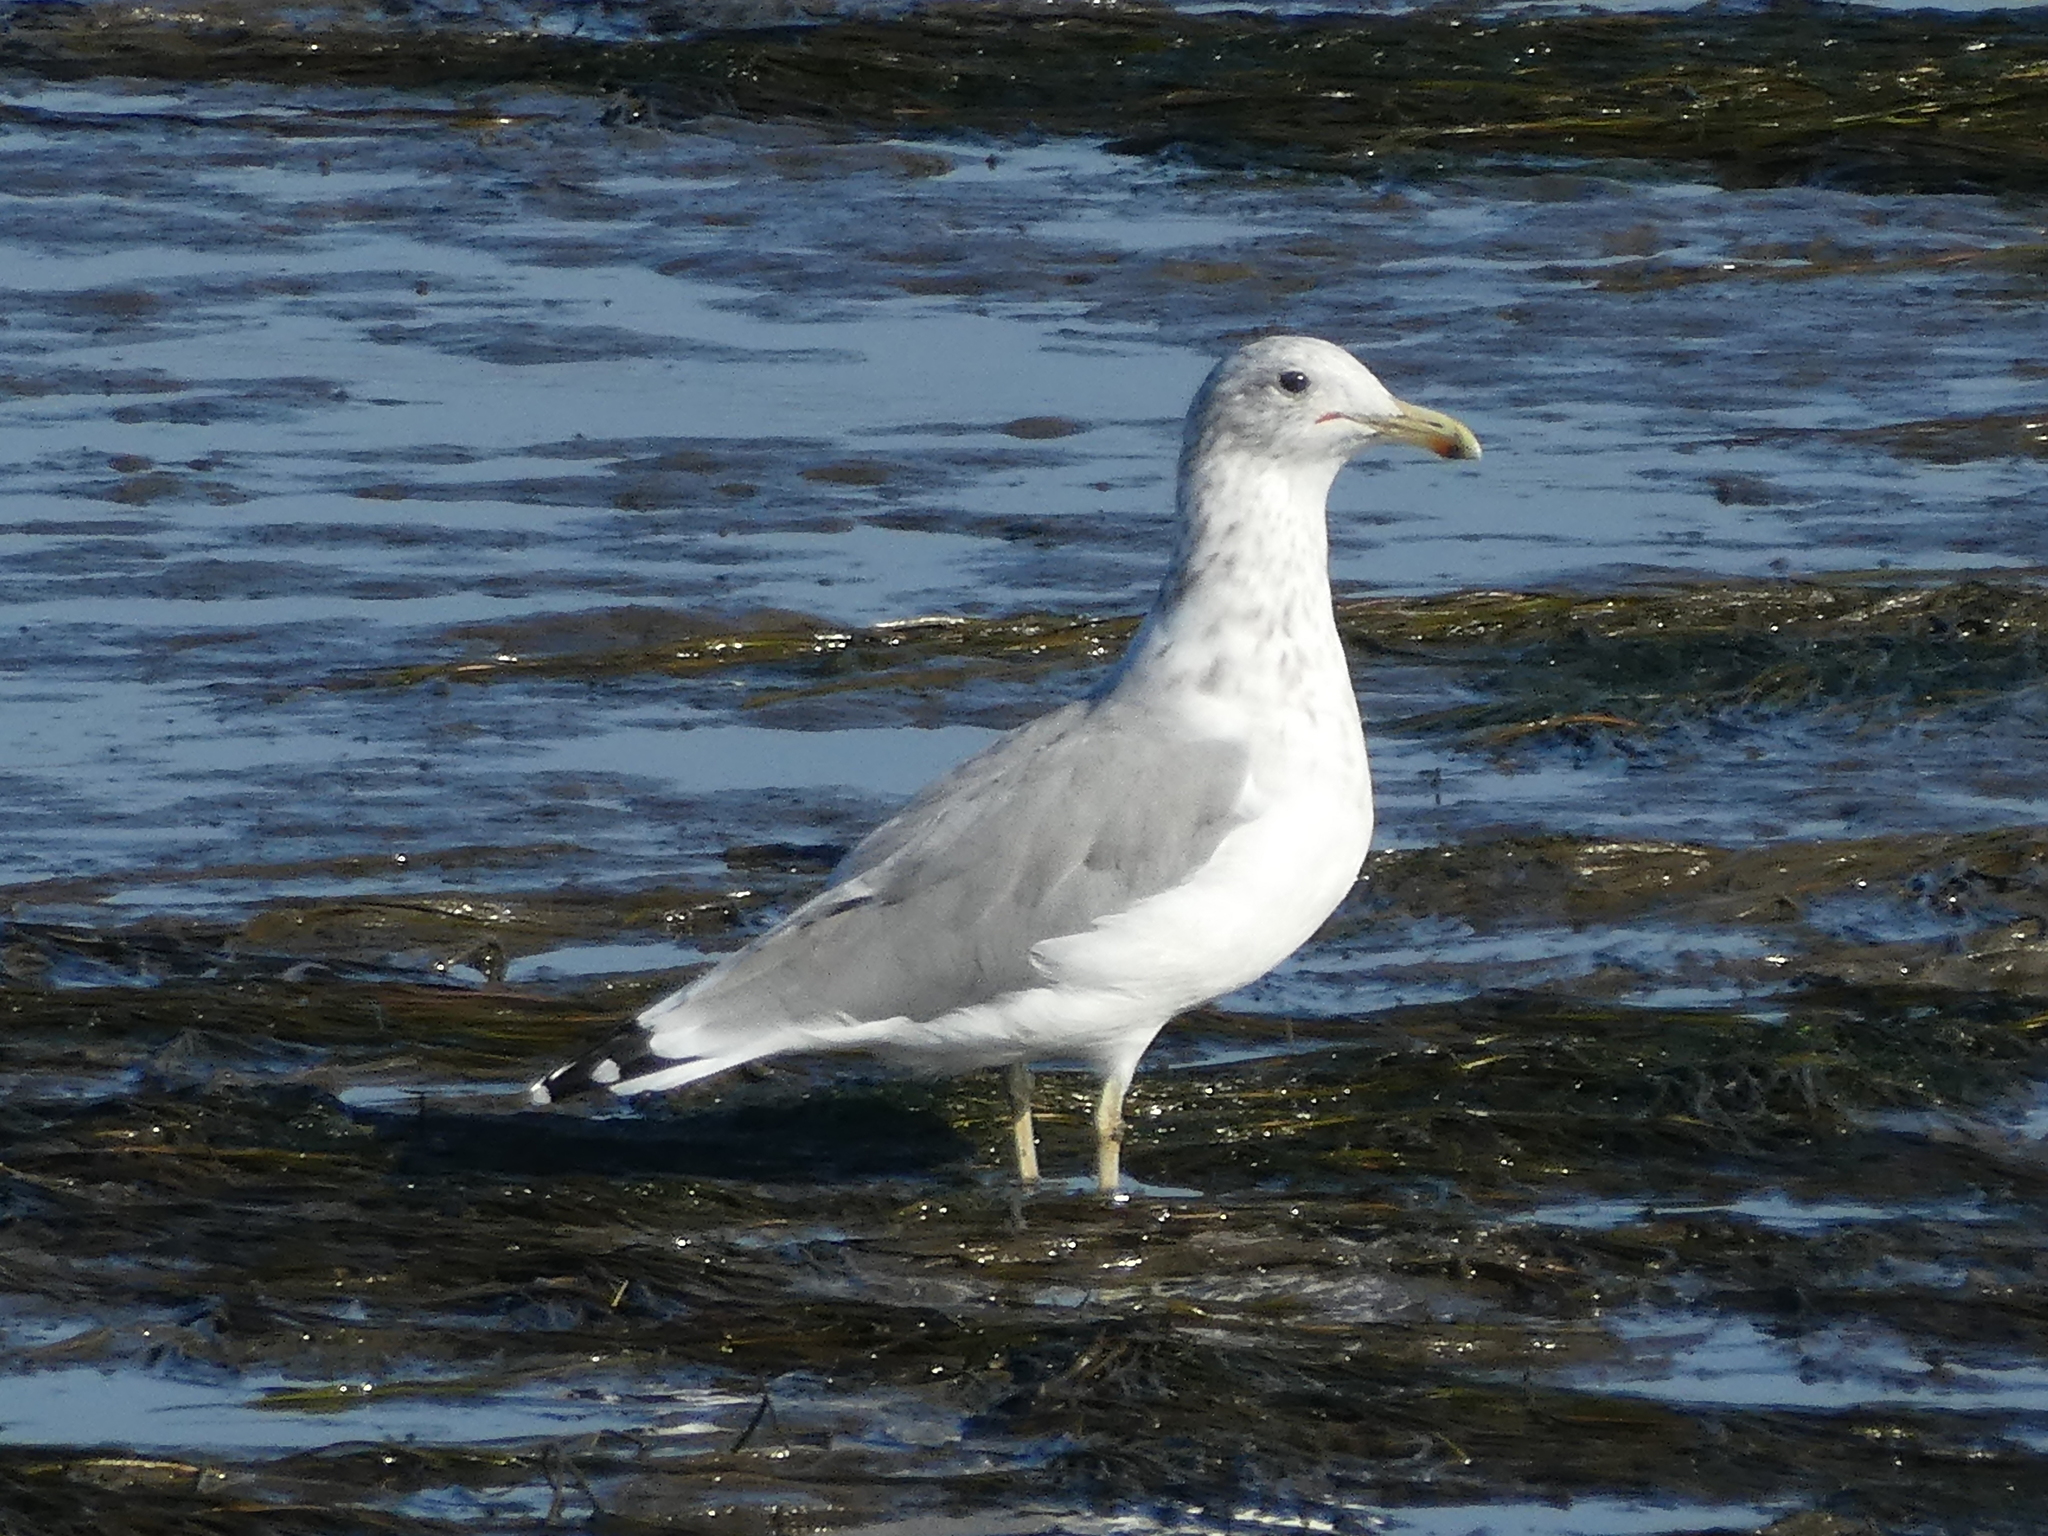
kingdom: Animalia
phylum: Chordata
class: Aves
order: Charadriiformes
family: Laridae
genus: Larus
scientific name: Larus californicus
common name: California gull
